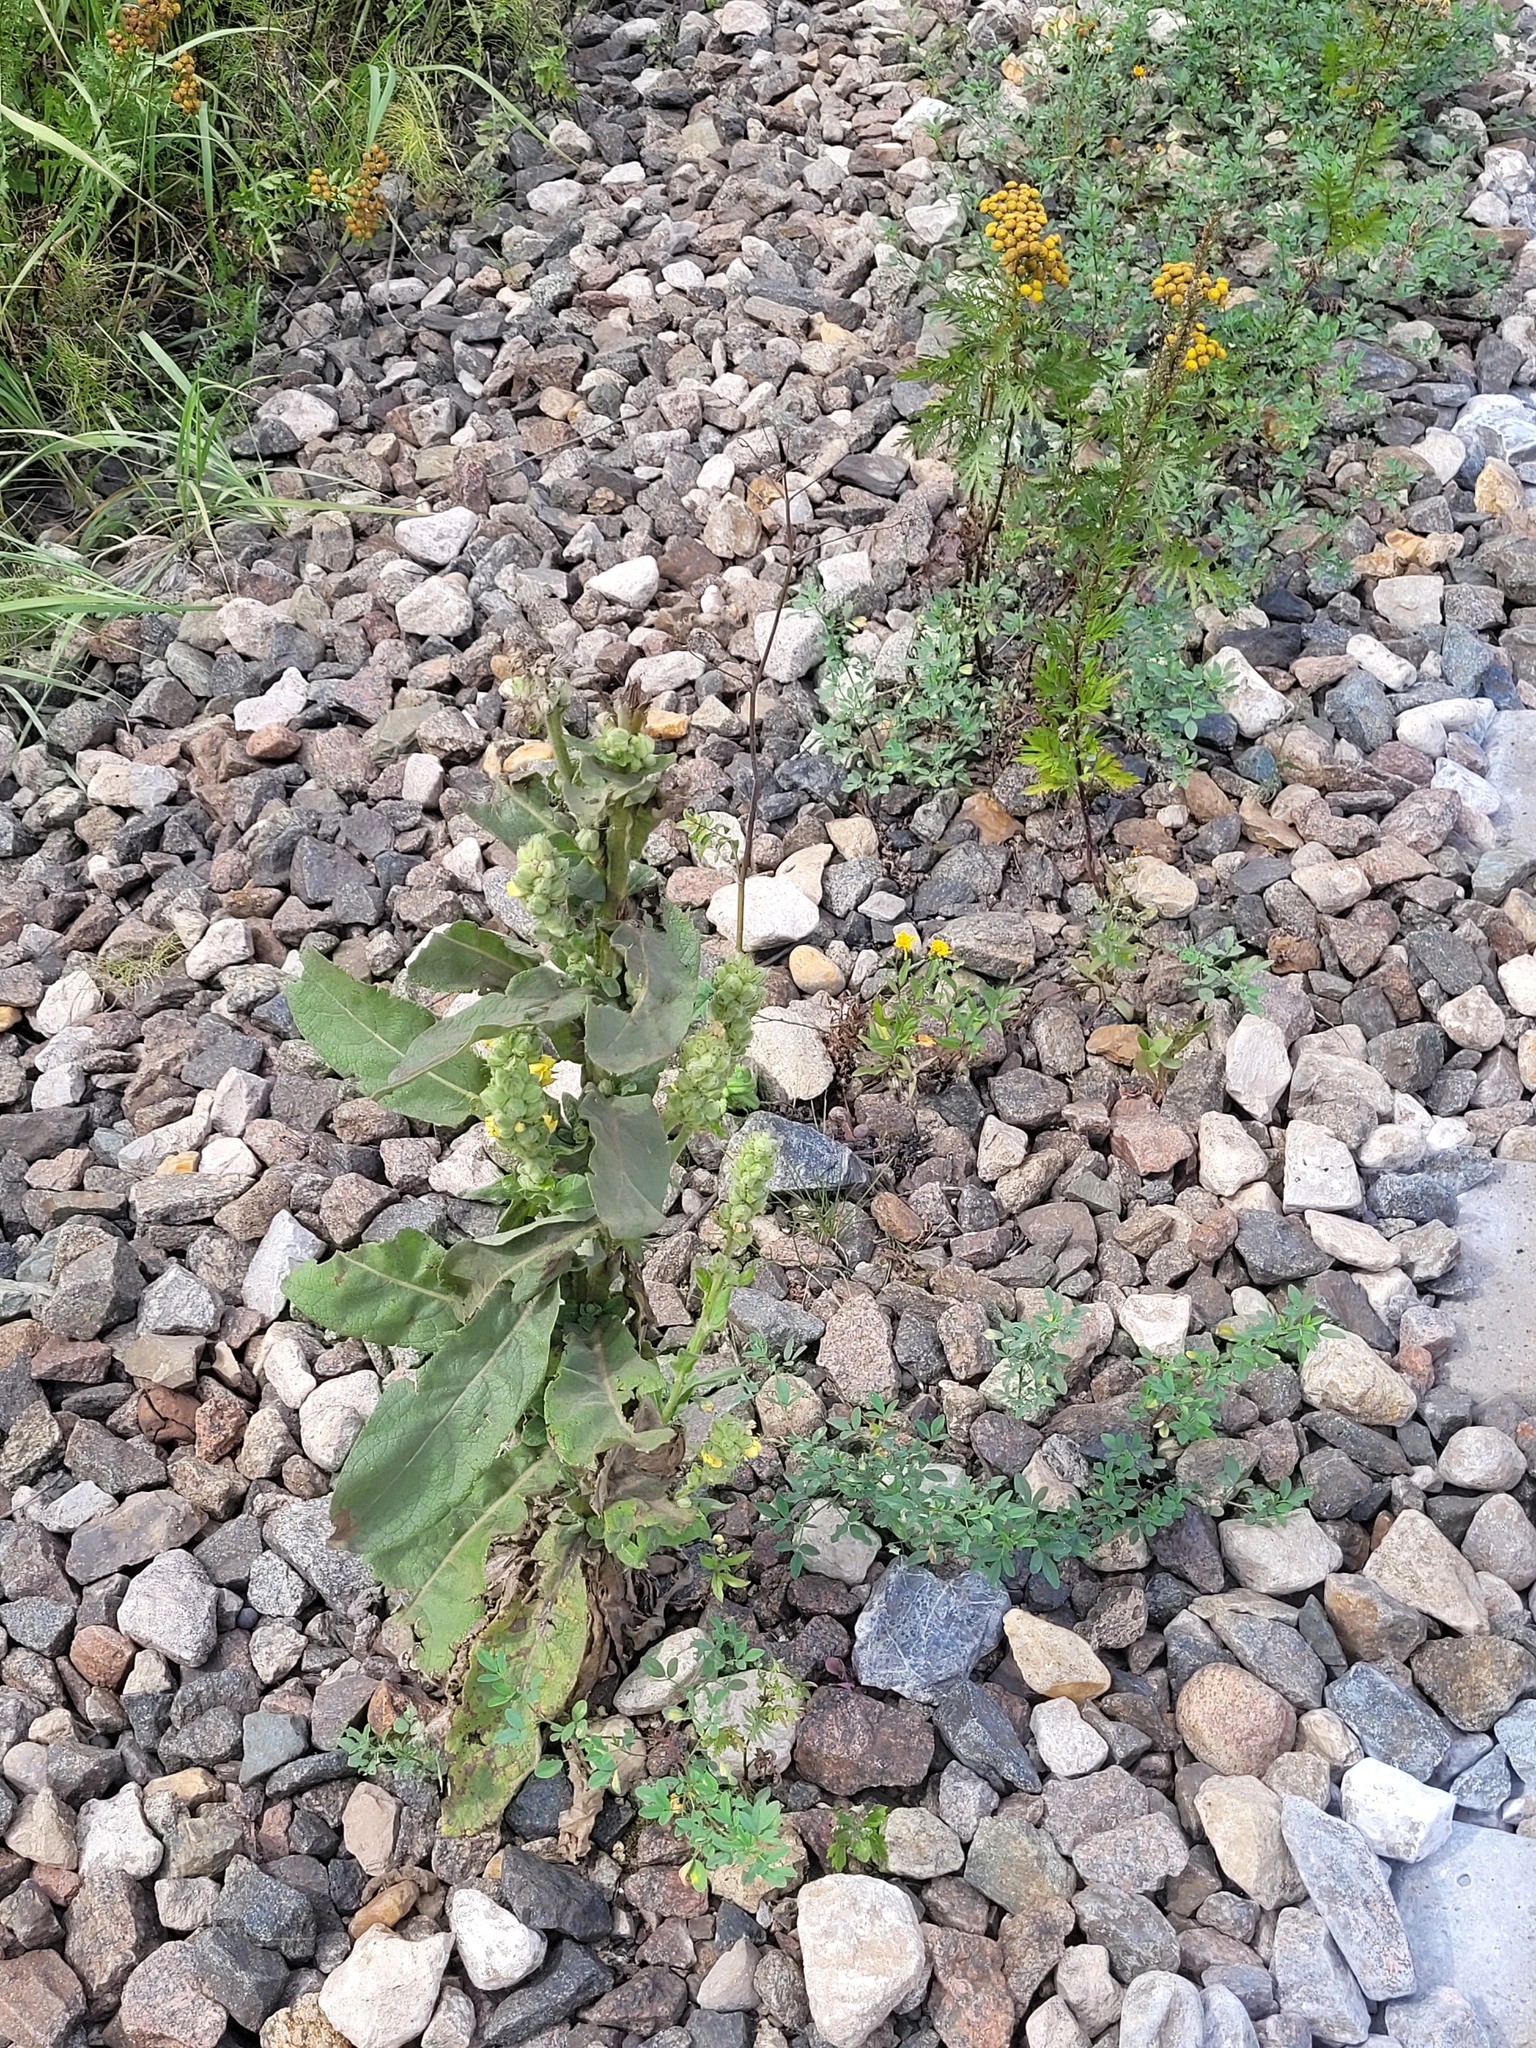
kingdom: Plantae
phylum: Tracheophyta
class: Magnoliopsida
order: Lamiales
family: Scrophulariaceae
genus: Verbascum
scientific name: Verbascum thapsus
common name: Common mullein
